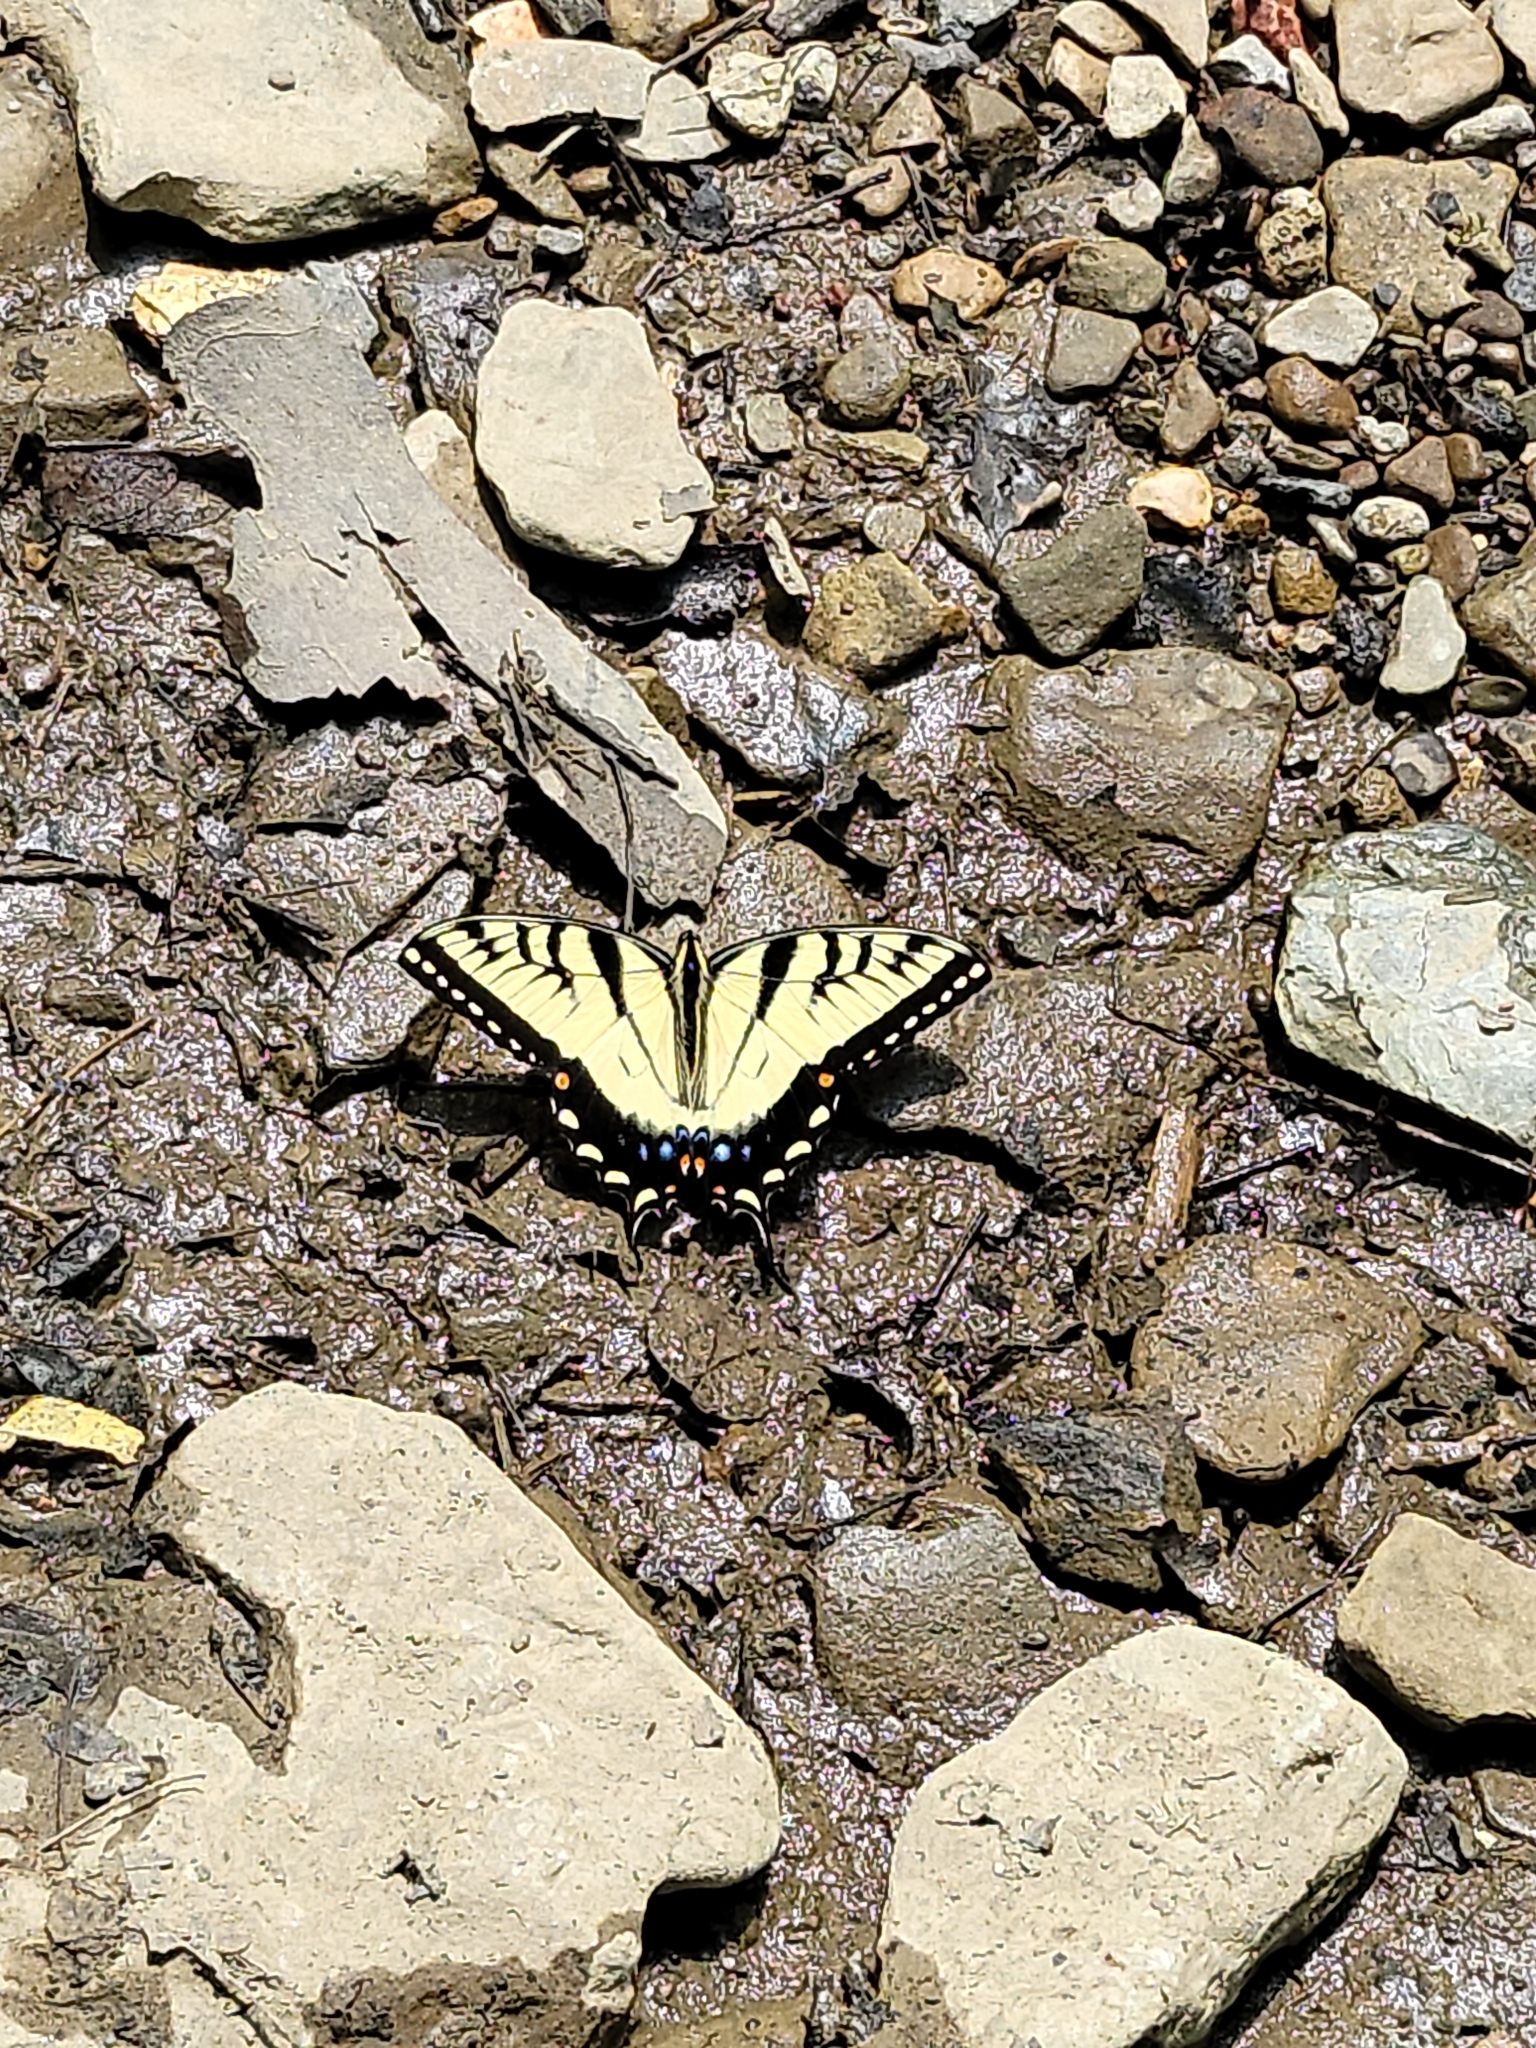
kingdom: Animalia
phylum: Arthropoda
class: Insecta
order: Lepidoptera
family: Papilionidae
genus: Papilio
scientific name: Papilio glaucus
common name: Tiger swallowtail
